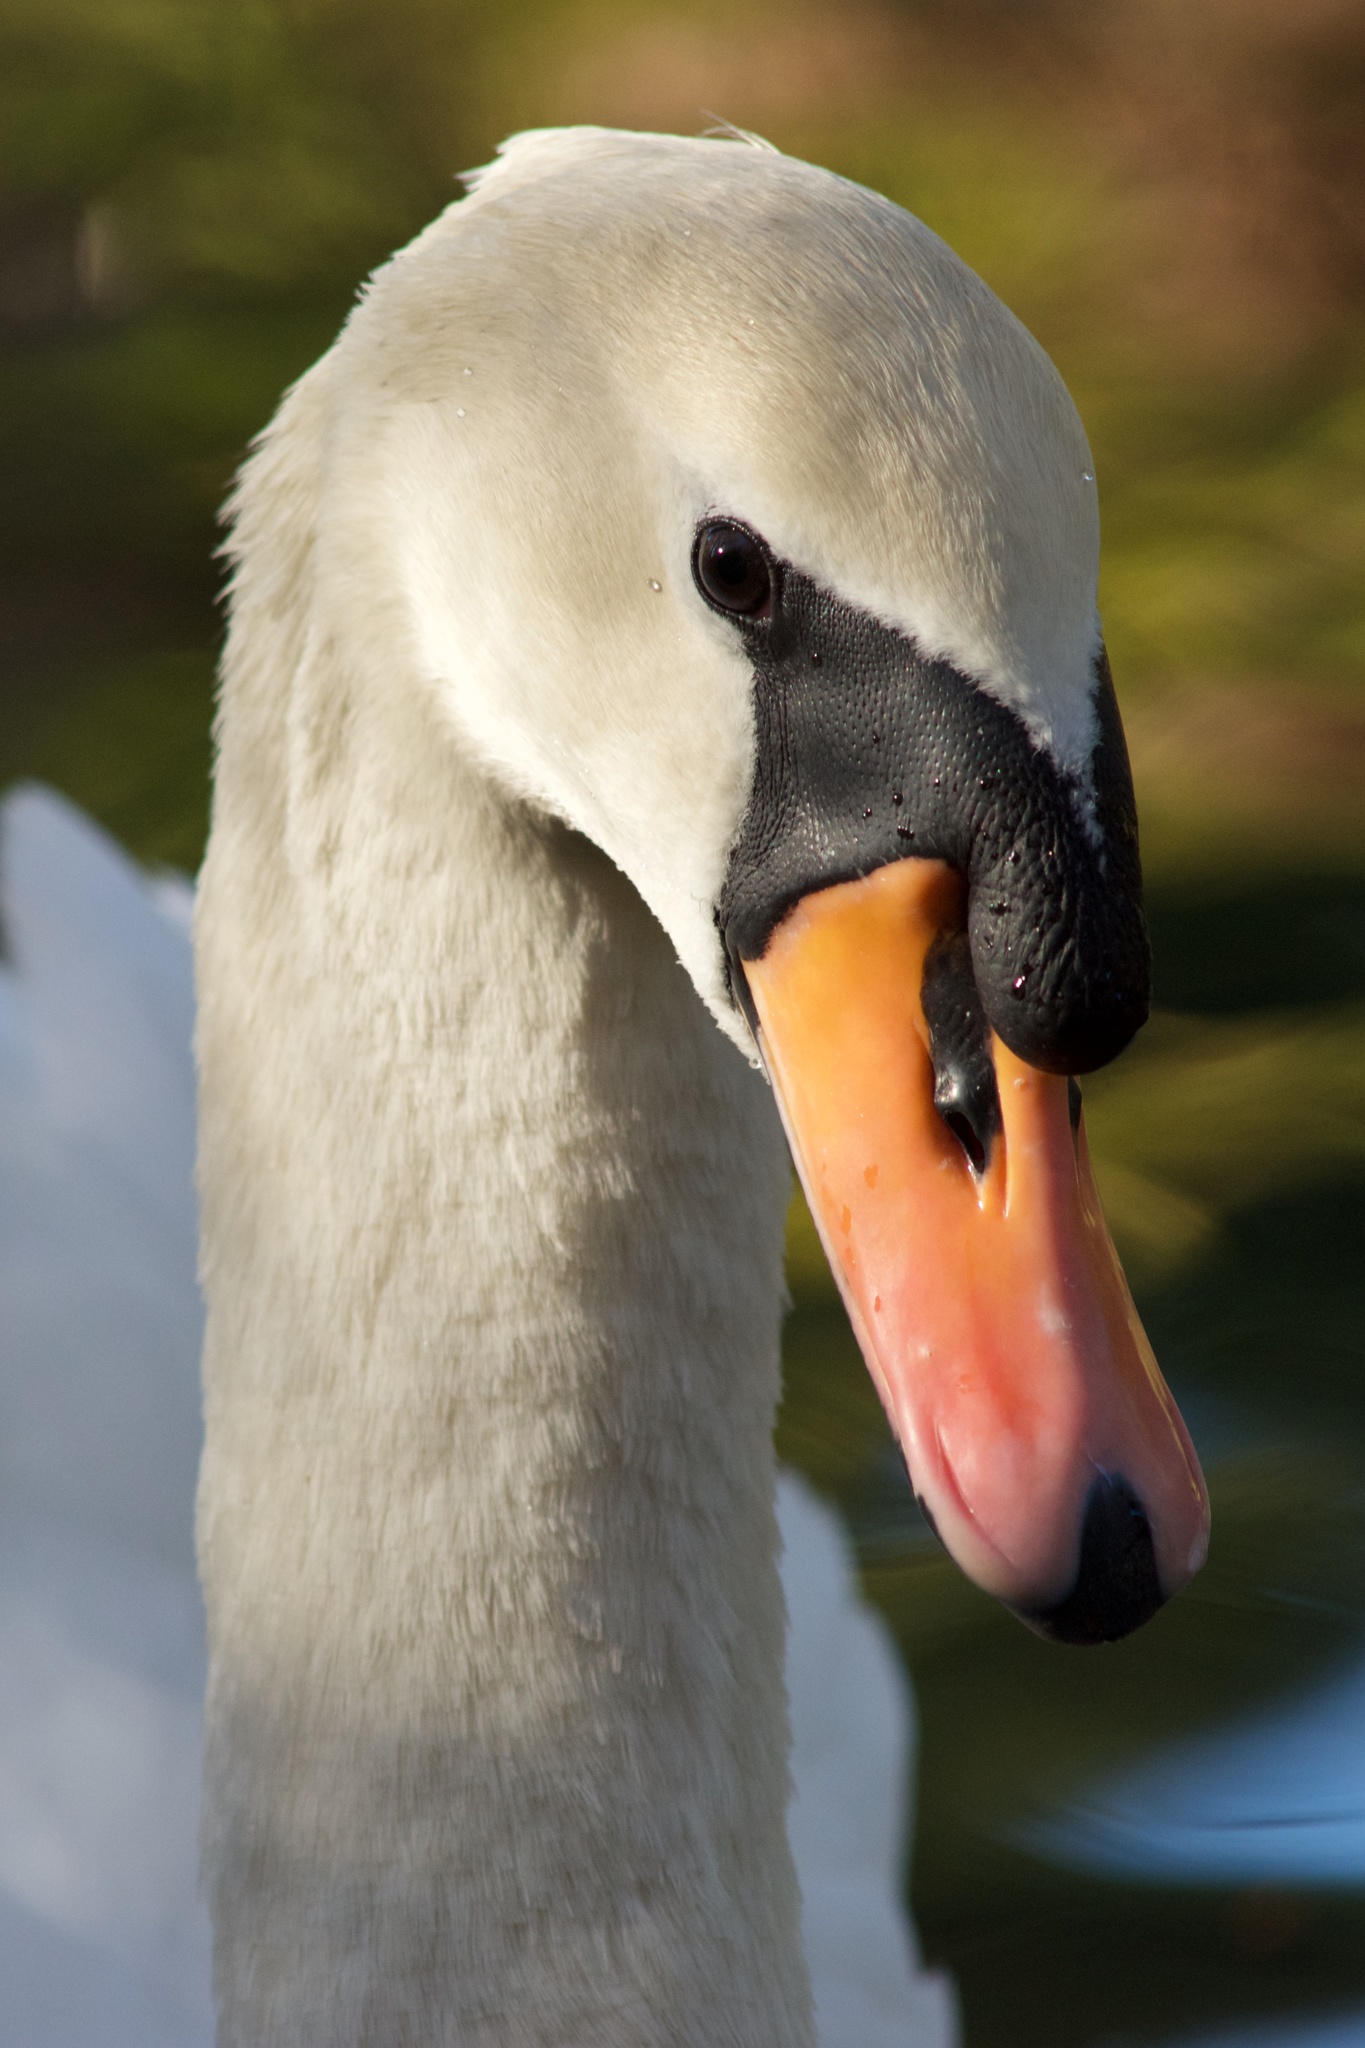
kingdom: Animalia
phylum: Chordata
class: Aves
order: Anseriformes
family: Anatidae
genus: Cygnus
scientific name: Cygnus olor
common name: Mute swan
